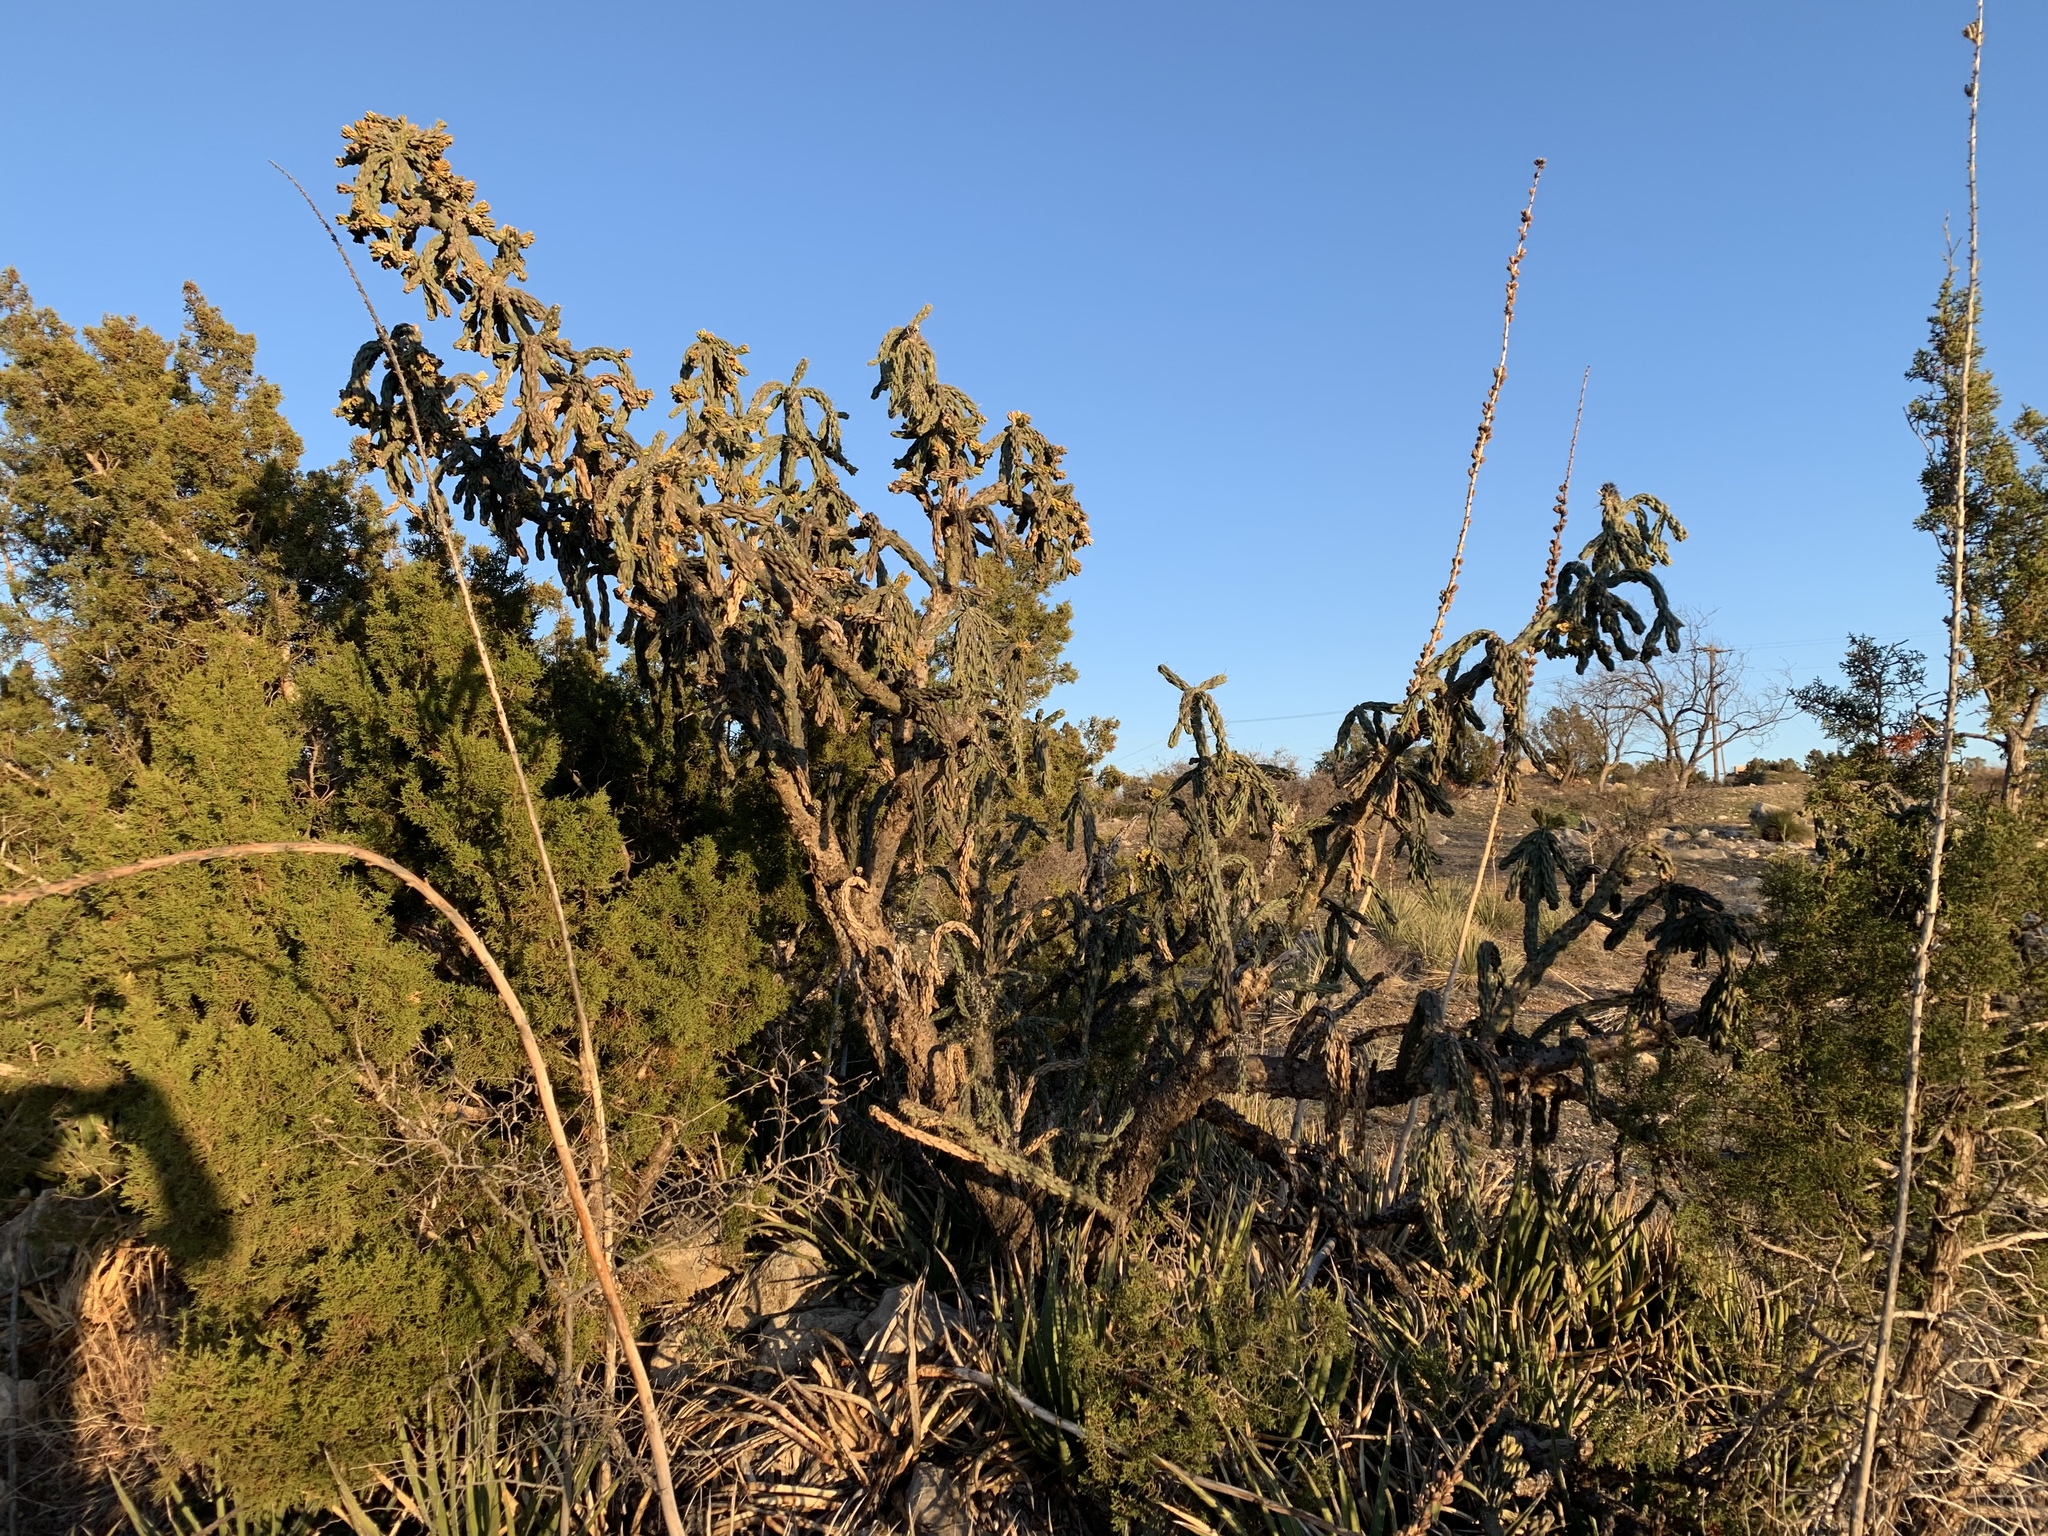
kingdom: Plantae
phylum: Tracheophyta
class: Magnoliopsida
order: Caryophyllales
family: Cactaceae
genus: Cylindropuntia
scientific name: Cylindropuntia imbricata
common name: Candelabrum cactus
